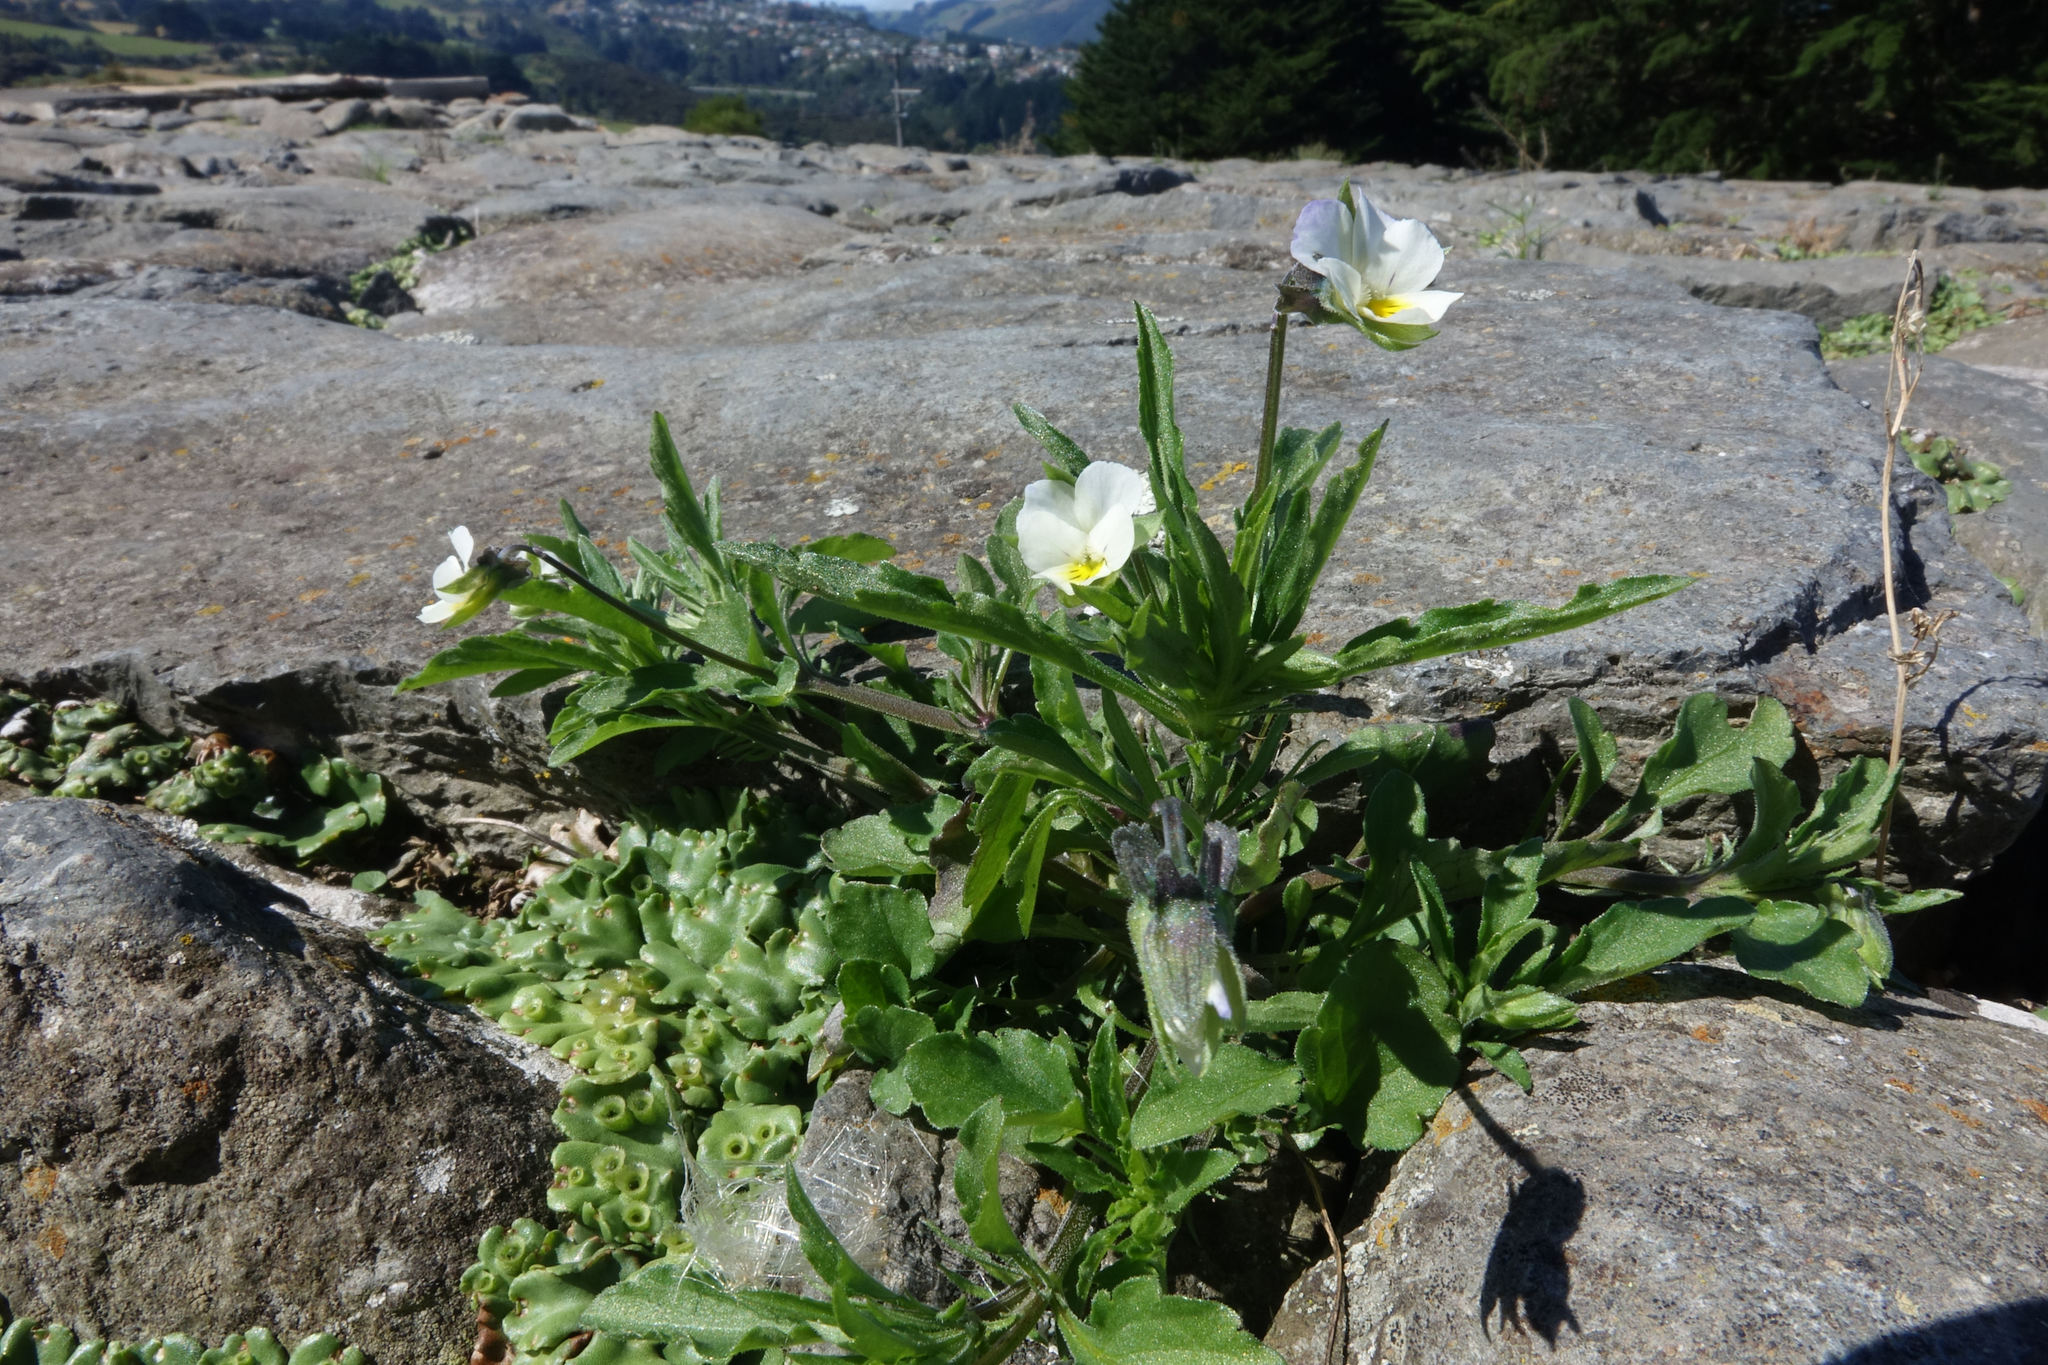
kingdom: Plantae
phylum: Tracheophyta
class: Magnoliopsida
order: Malpighiales
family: Violaceae
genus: Viola
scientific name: Viola arvensis
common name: Field pansy
